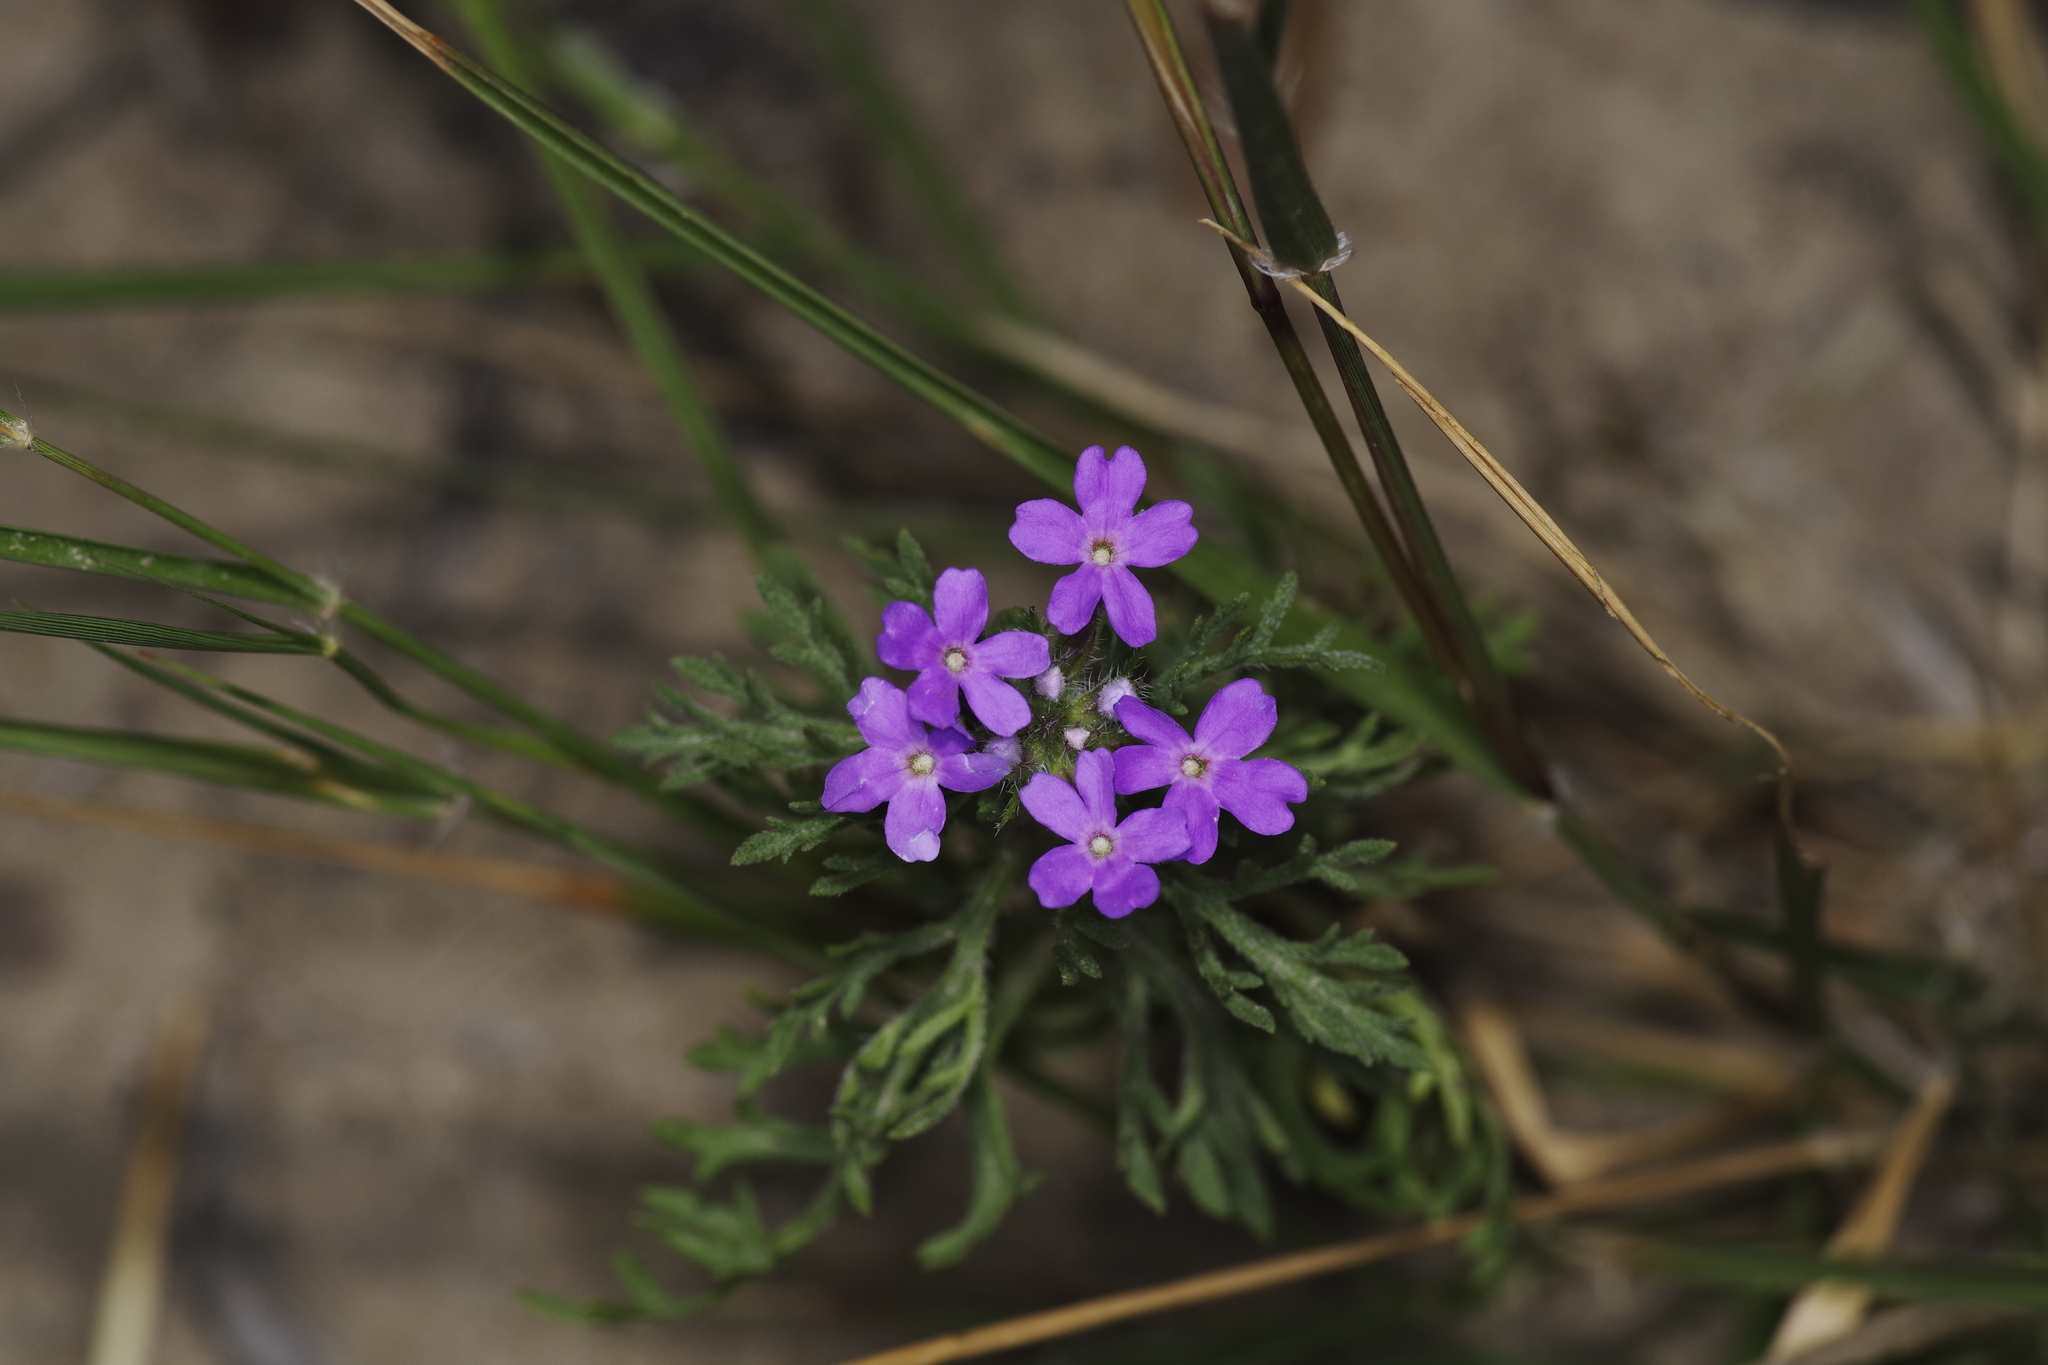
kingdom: Plantae
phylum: Tracheophyta
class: Magnoliopsida
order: Lamiales
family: Verbenaceae
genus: Verbena
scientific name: Verbena bipinnatifida
